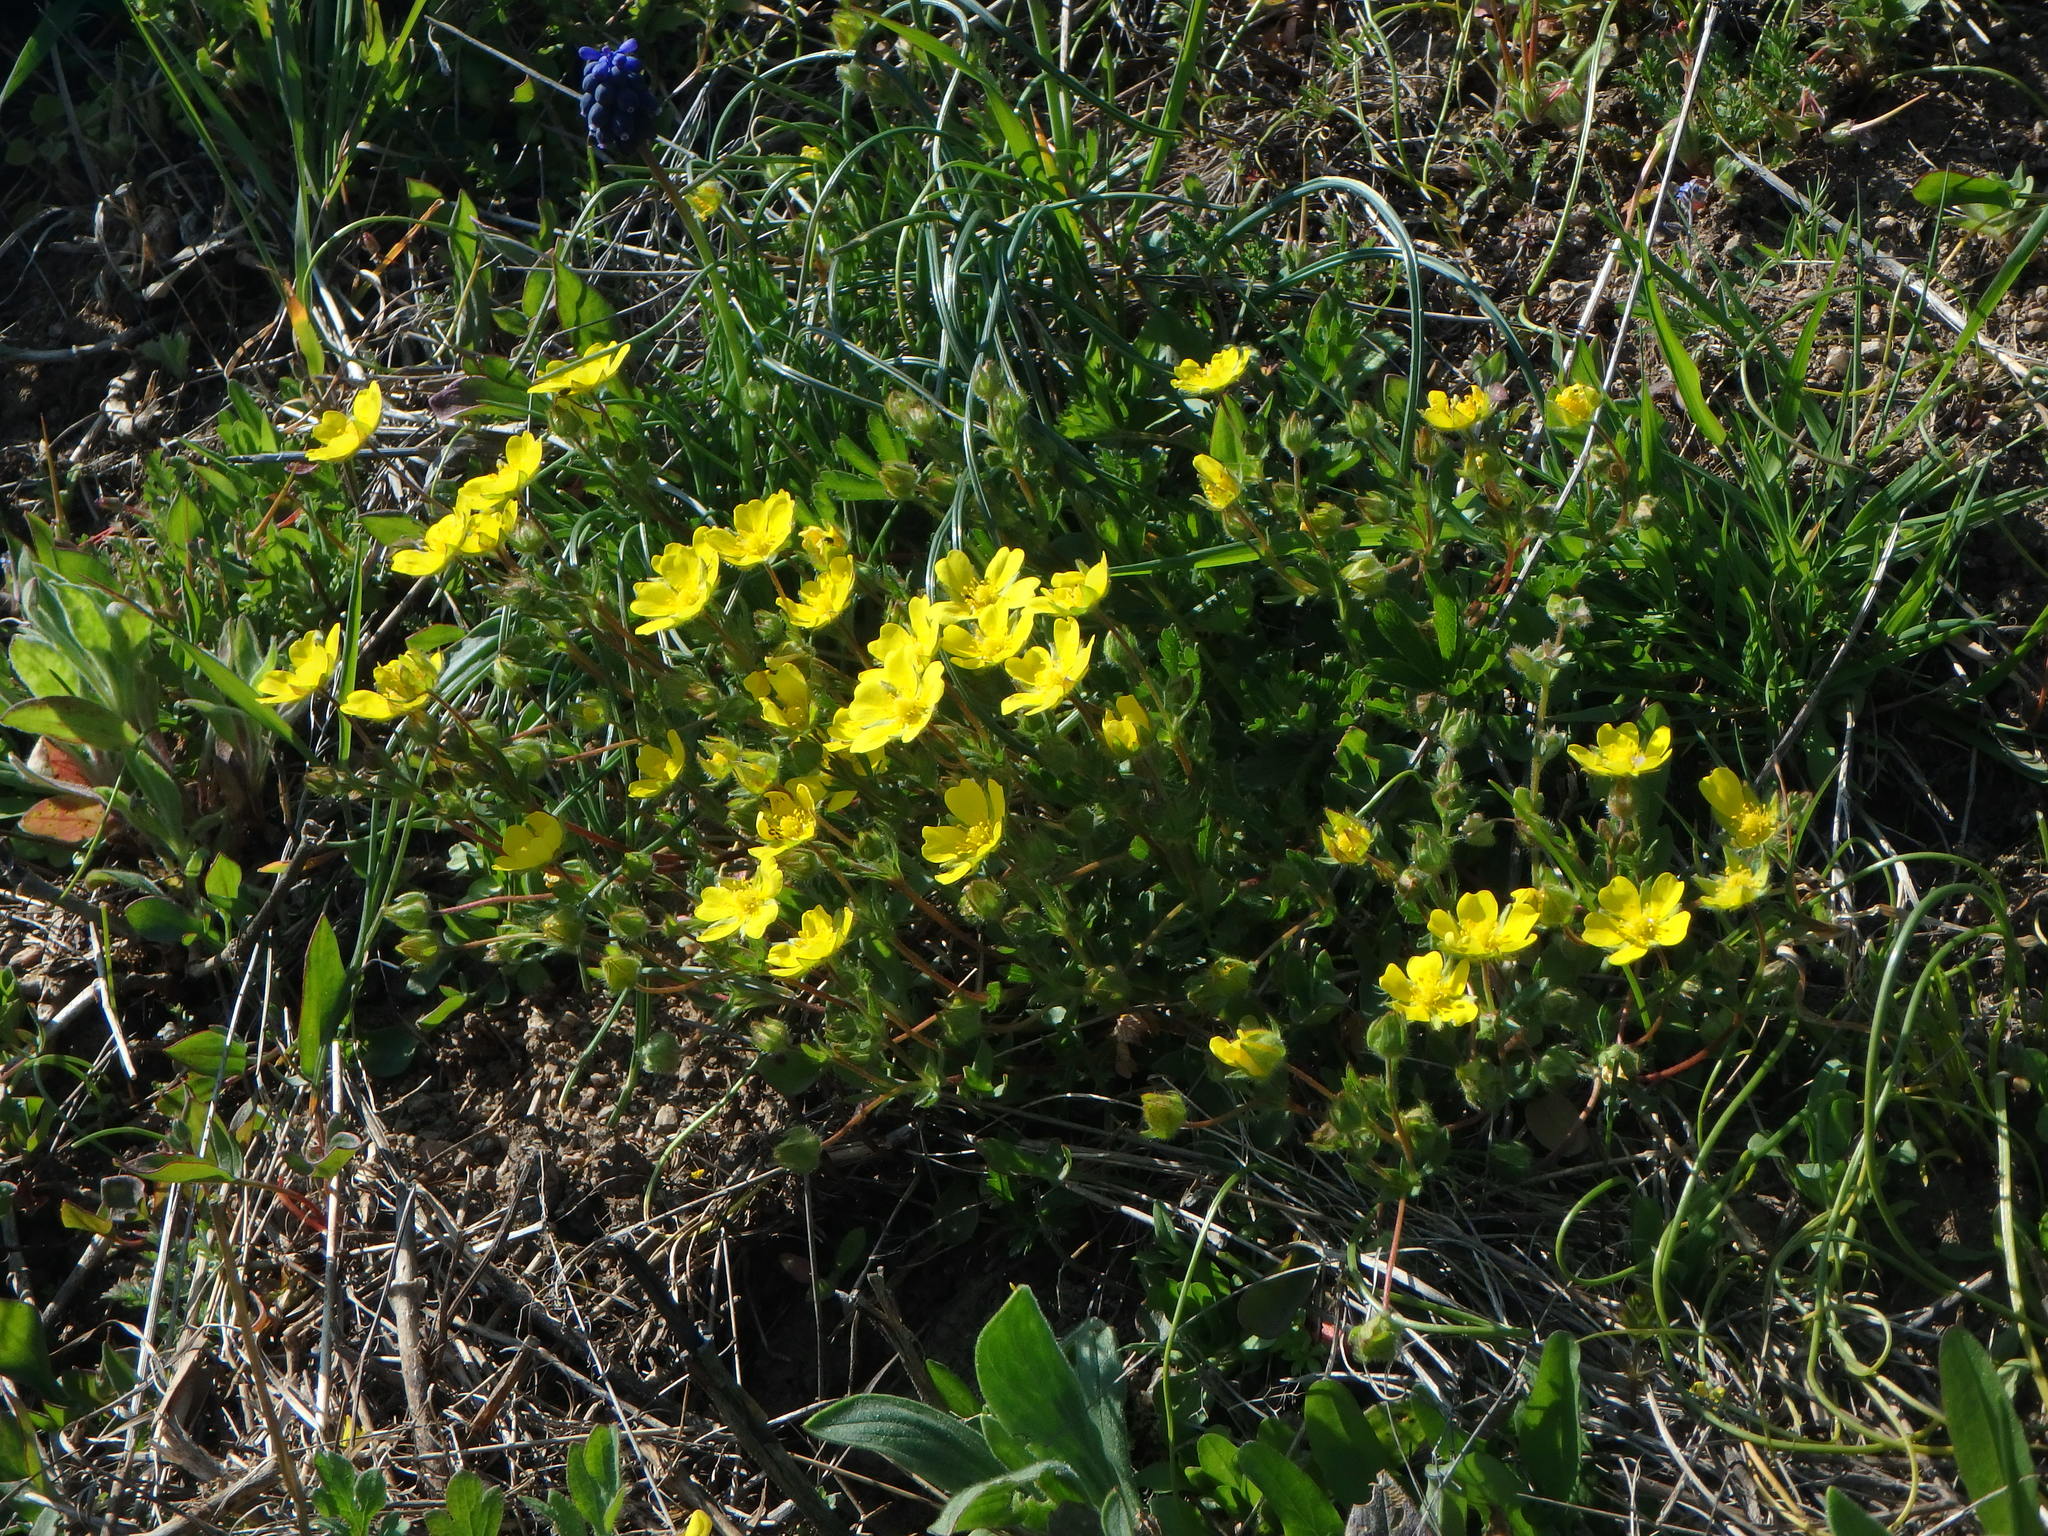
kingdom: Plantae
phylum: Tracheophyta
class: Magnoliopsida
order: Rosales
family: Rosaceae
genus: Potentilla
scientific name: Potentilla verna
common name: Spring cinquefoil
